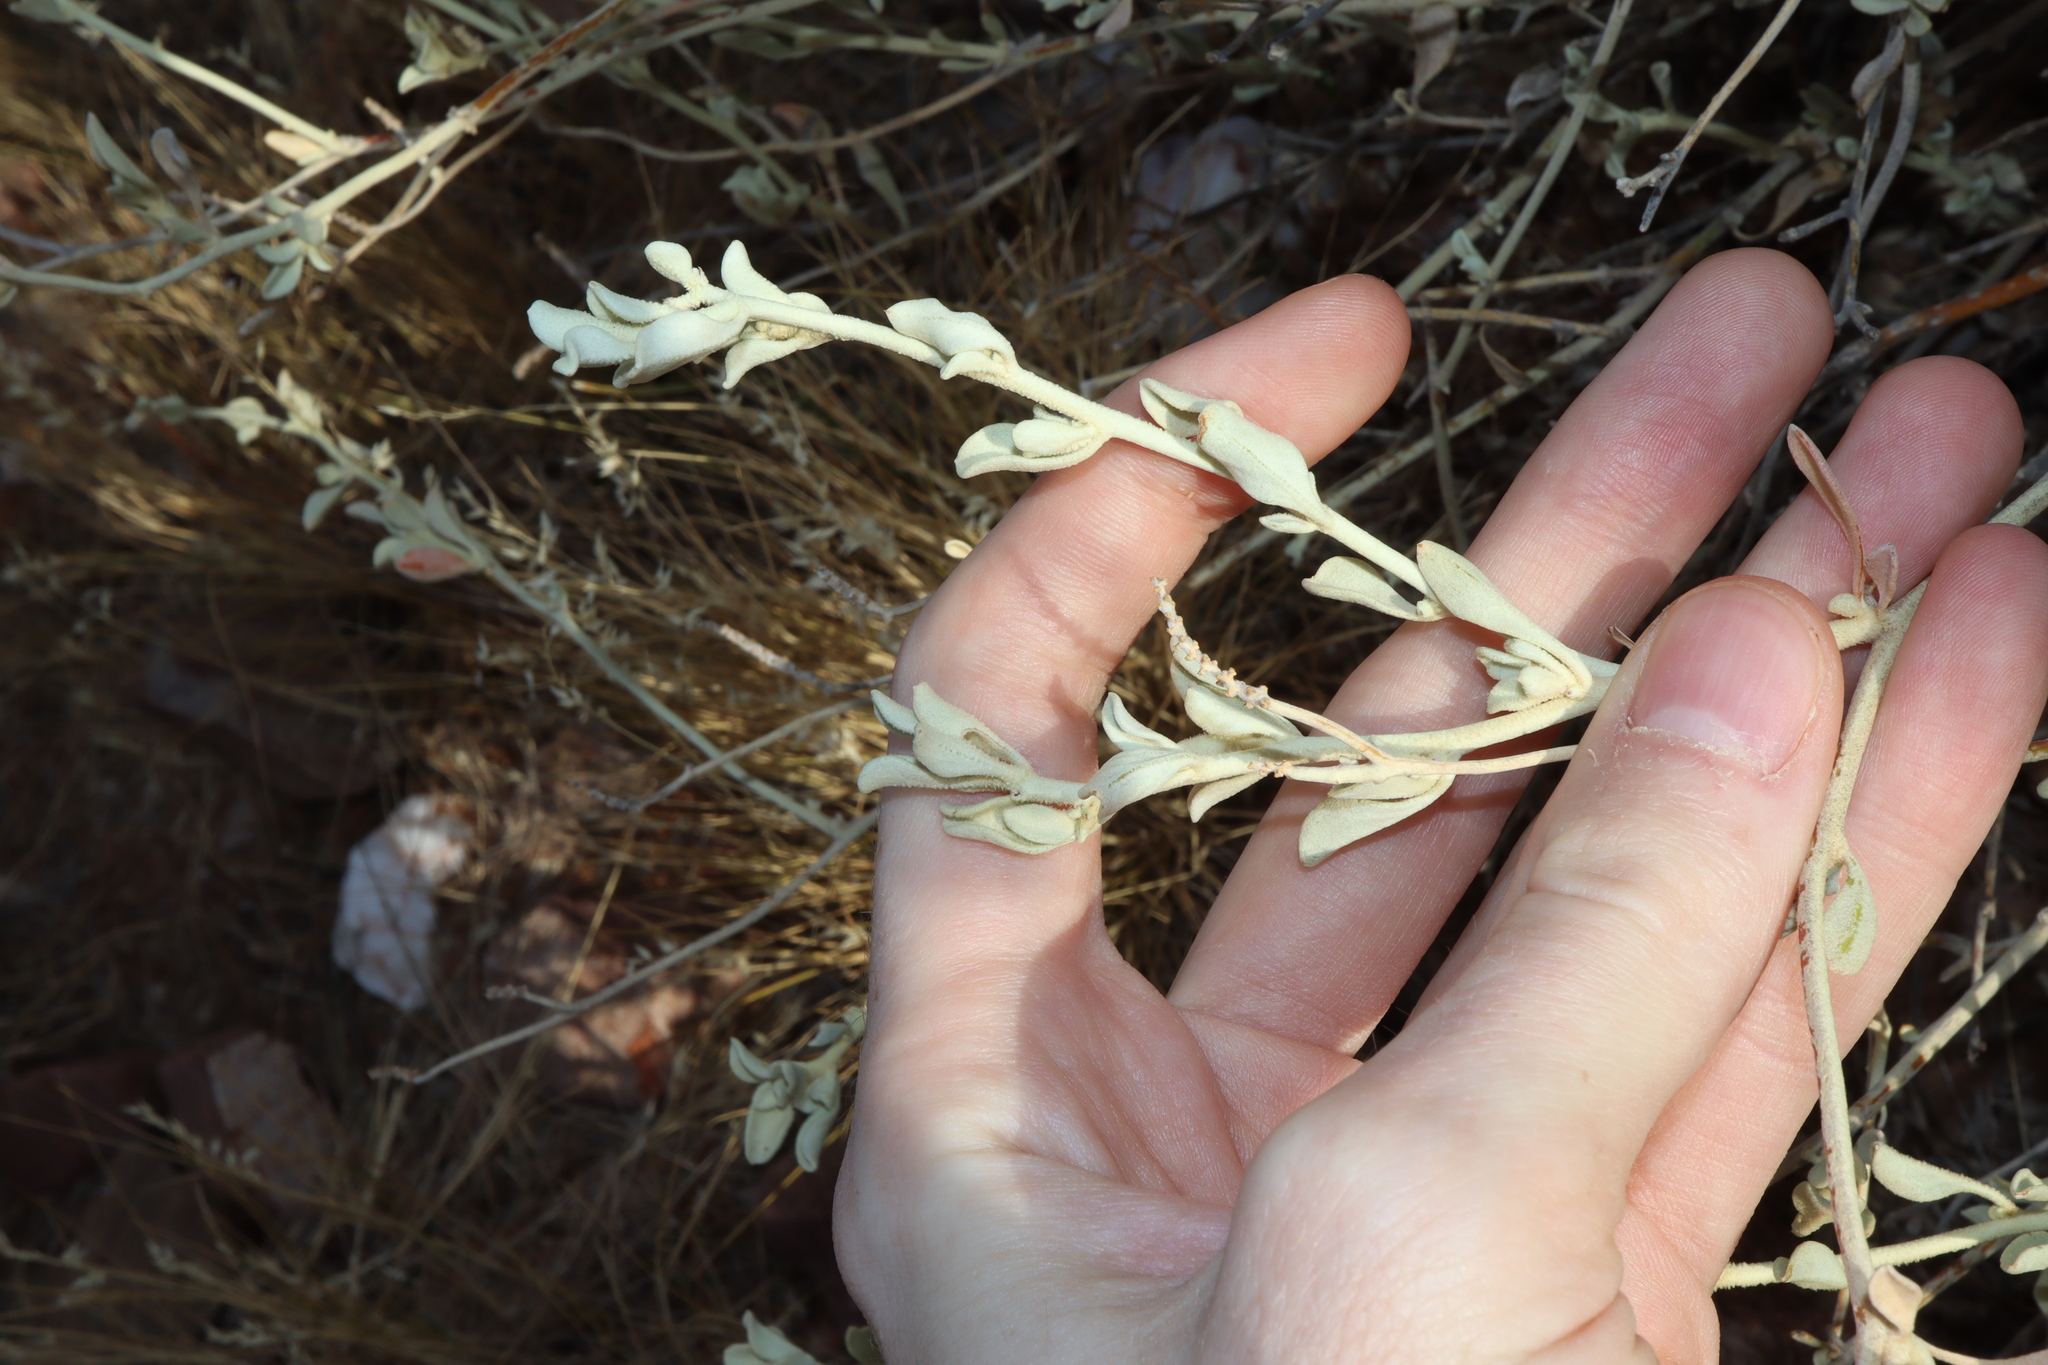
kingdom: Plantae
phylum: Tracheophyta
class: Magnoliopsida
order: Caryophyllales
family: Amaranthaceae
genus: Ptilotus
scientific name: Ptilotus obovatus
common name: Cottonbush
